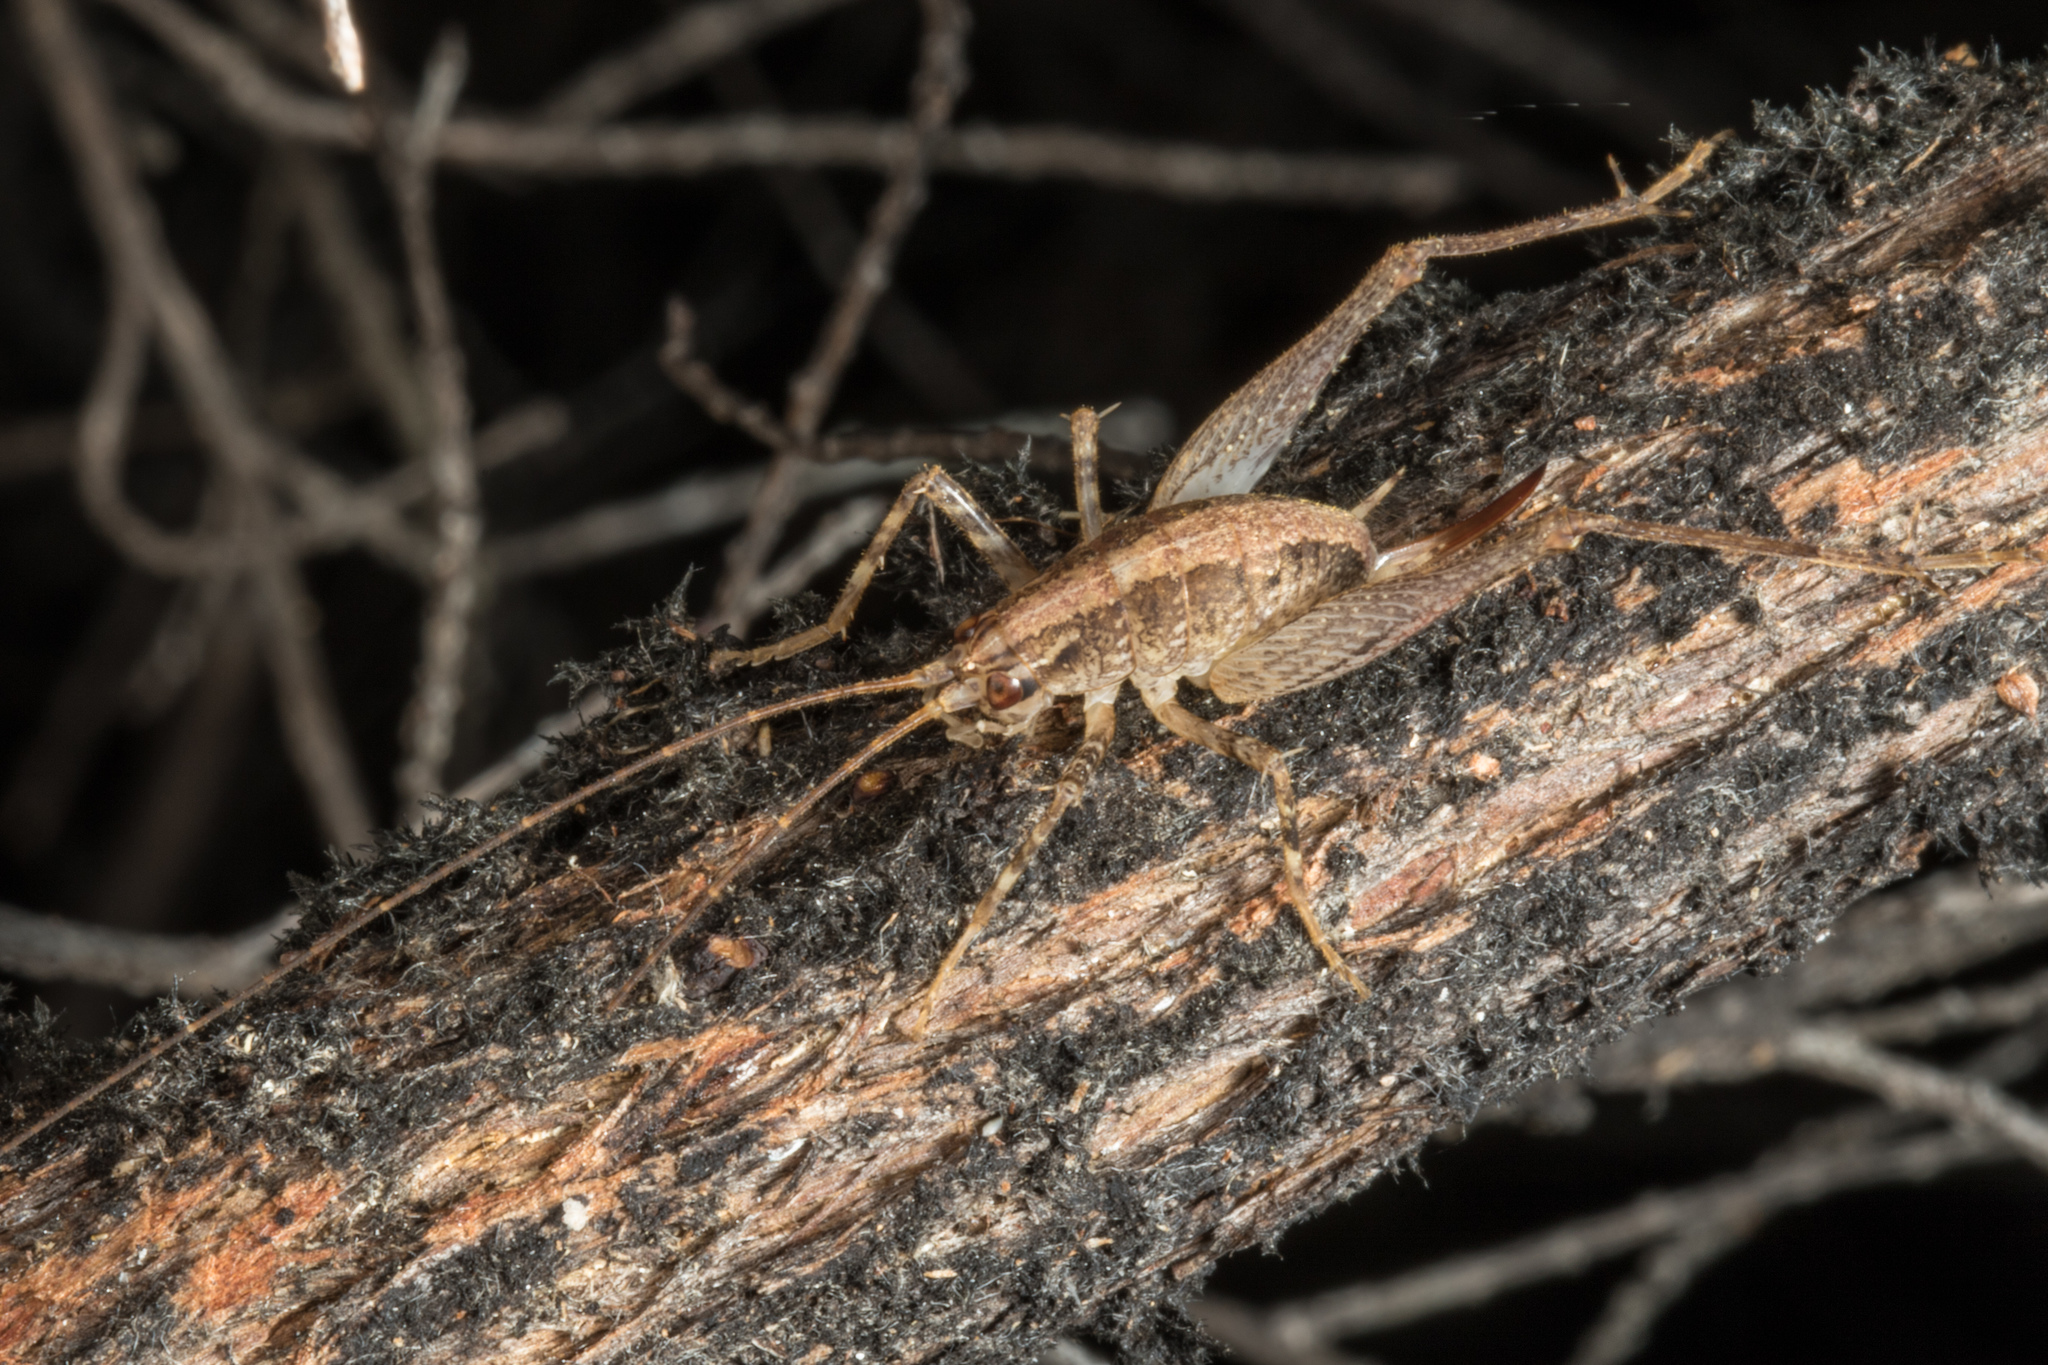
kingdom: Animalia
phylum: Arthropoda
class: Insecta
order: Orthoptera
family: Rhaphidophoridae
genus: Pleioplectron
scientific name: Pleioplectron hudsoni
